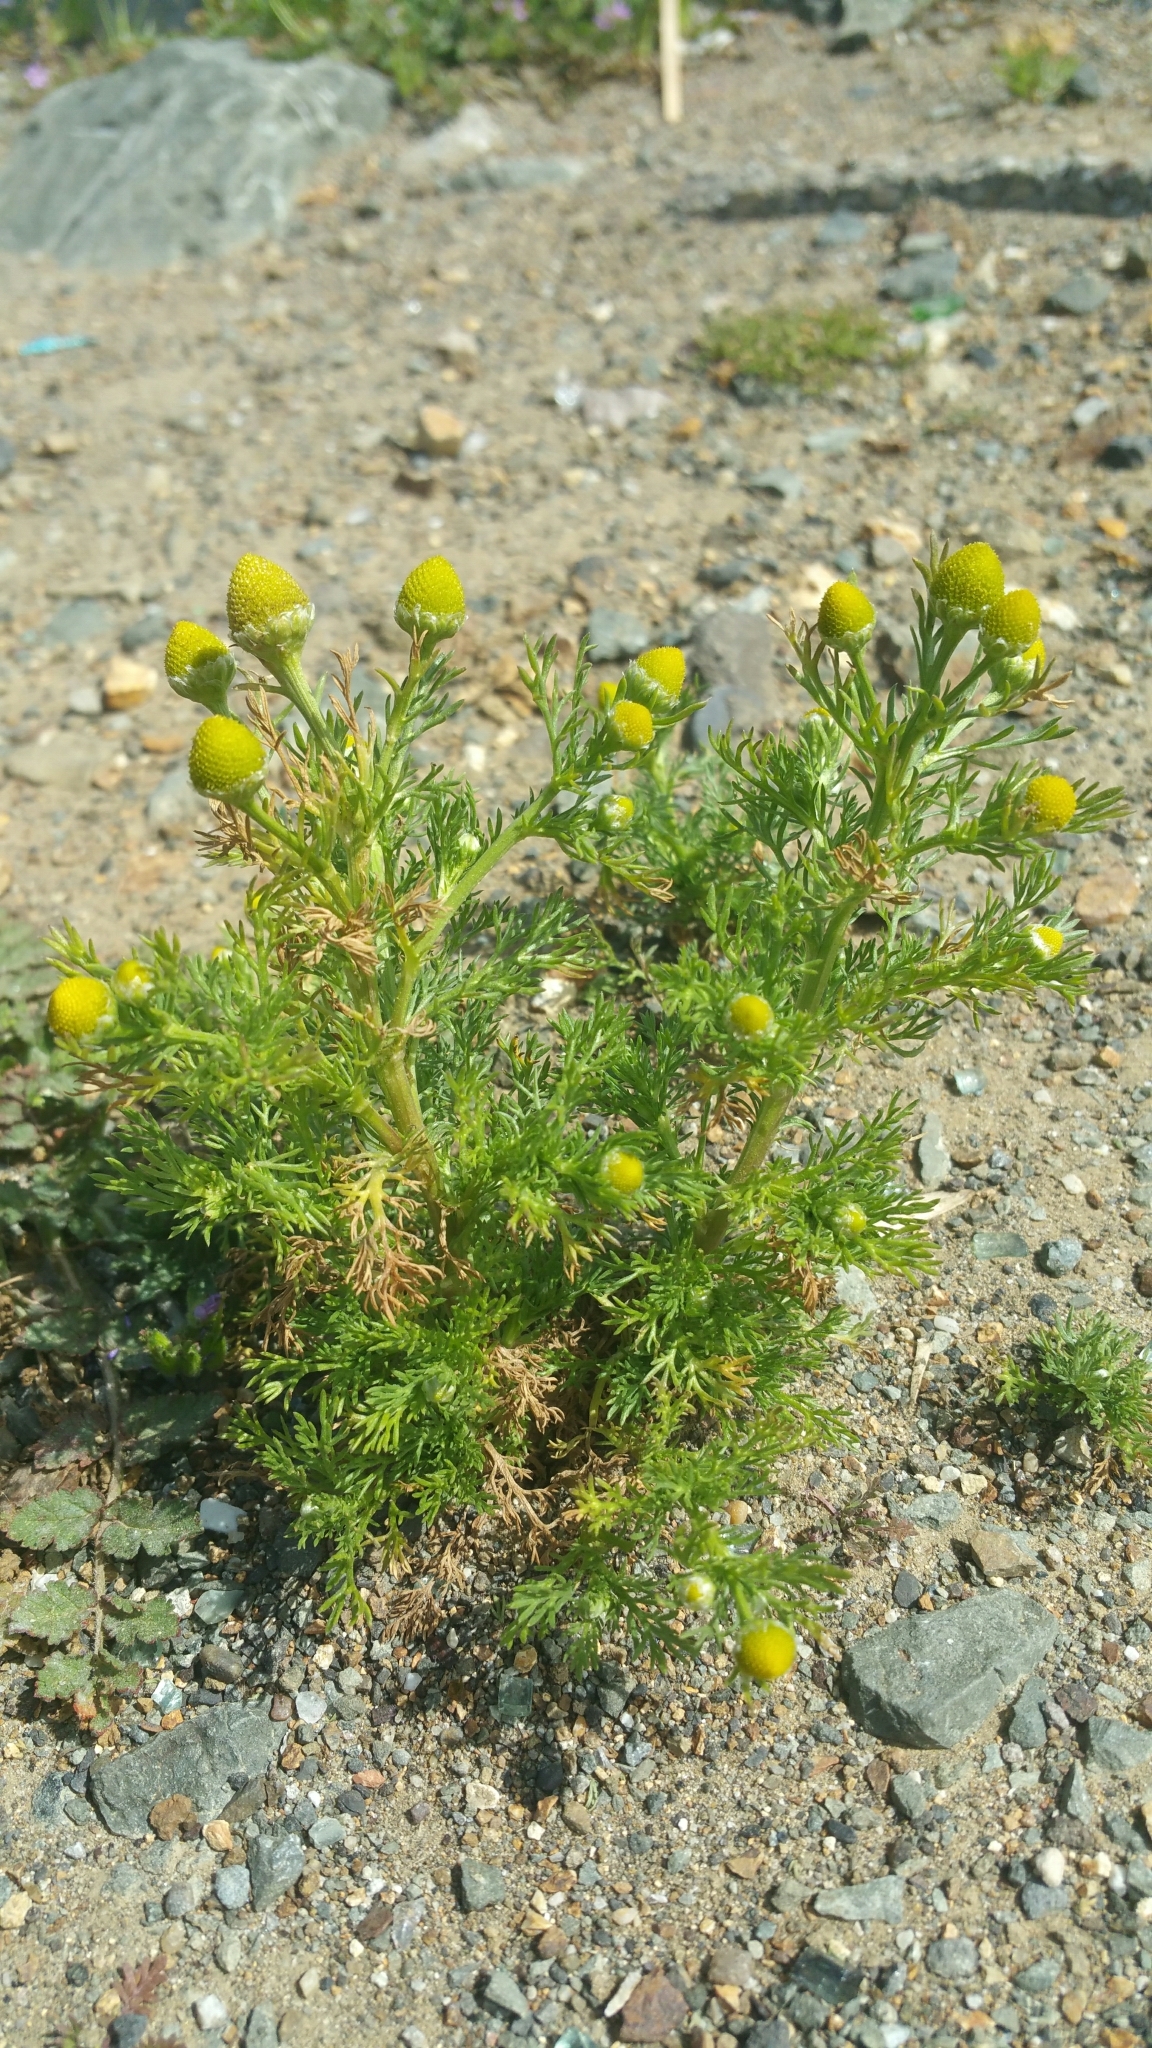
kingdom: Plantae
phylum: Tracheophyta
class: Magnoliopsida
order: Asterales
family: Asteraceae
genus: Matricaria
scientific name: Matricaria discoidea
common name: Disc mayweed
